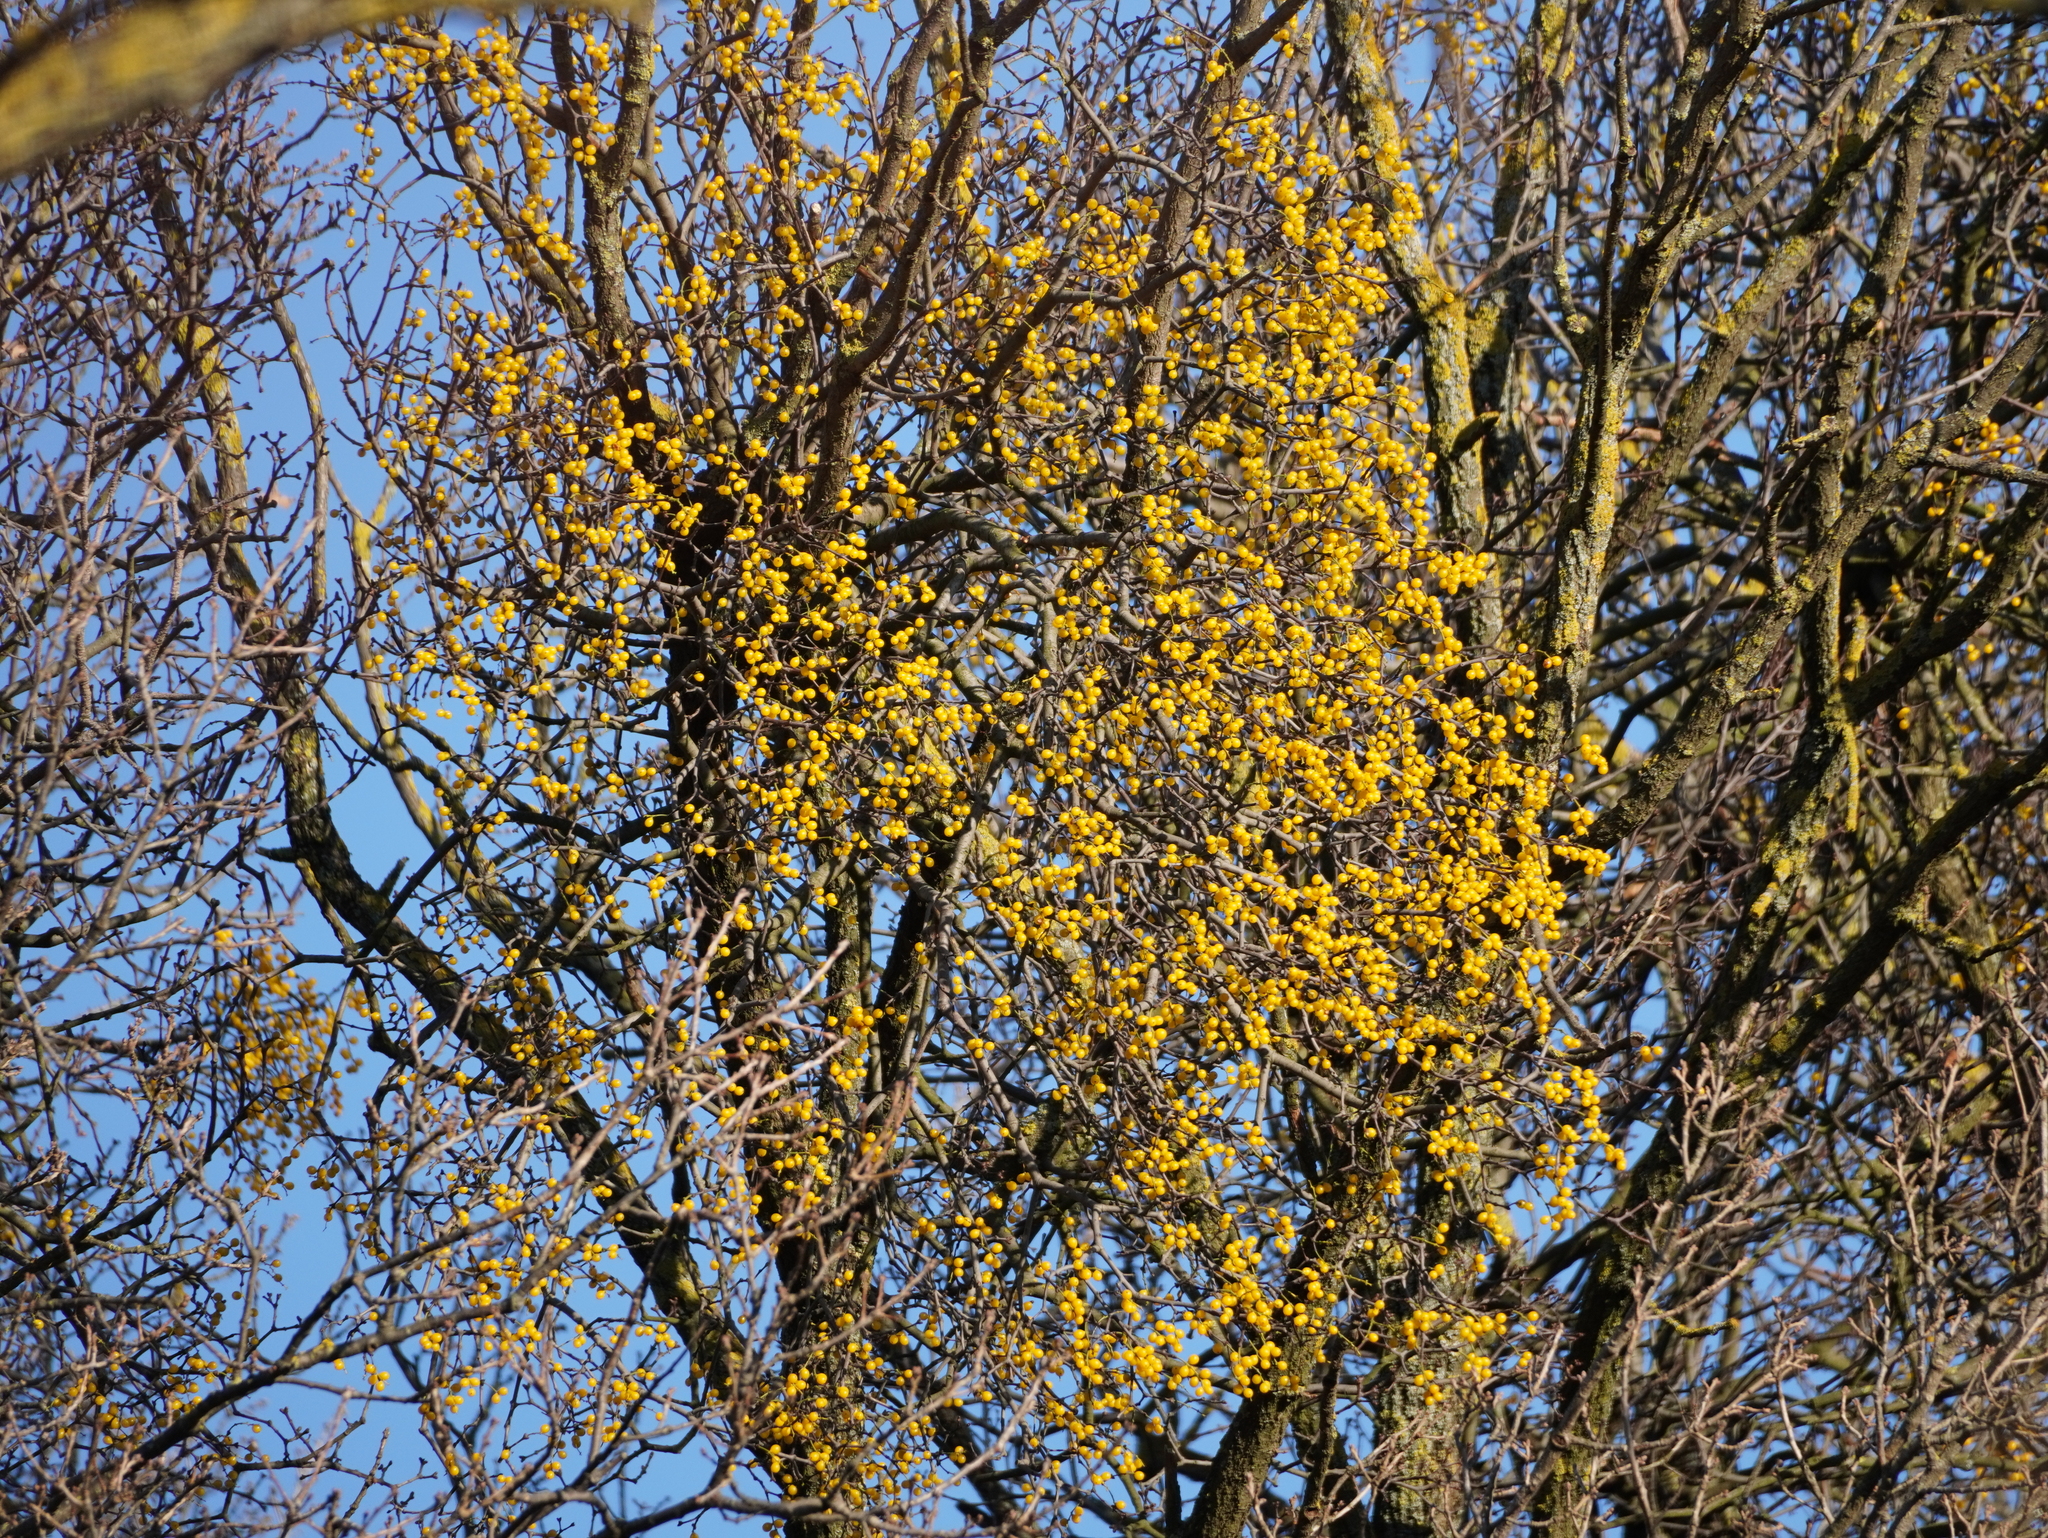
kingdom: Plantae
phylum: Tracheophyta
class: Magnoliopsida
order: Santalales
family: Loranthaceae
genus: Loranthus
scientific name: Loranthus europaeus
